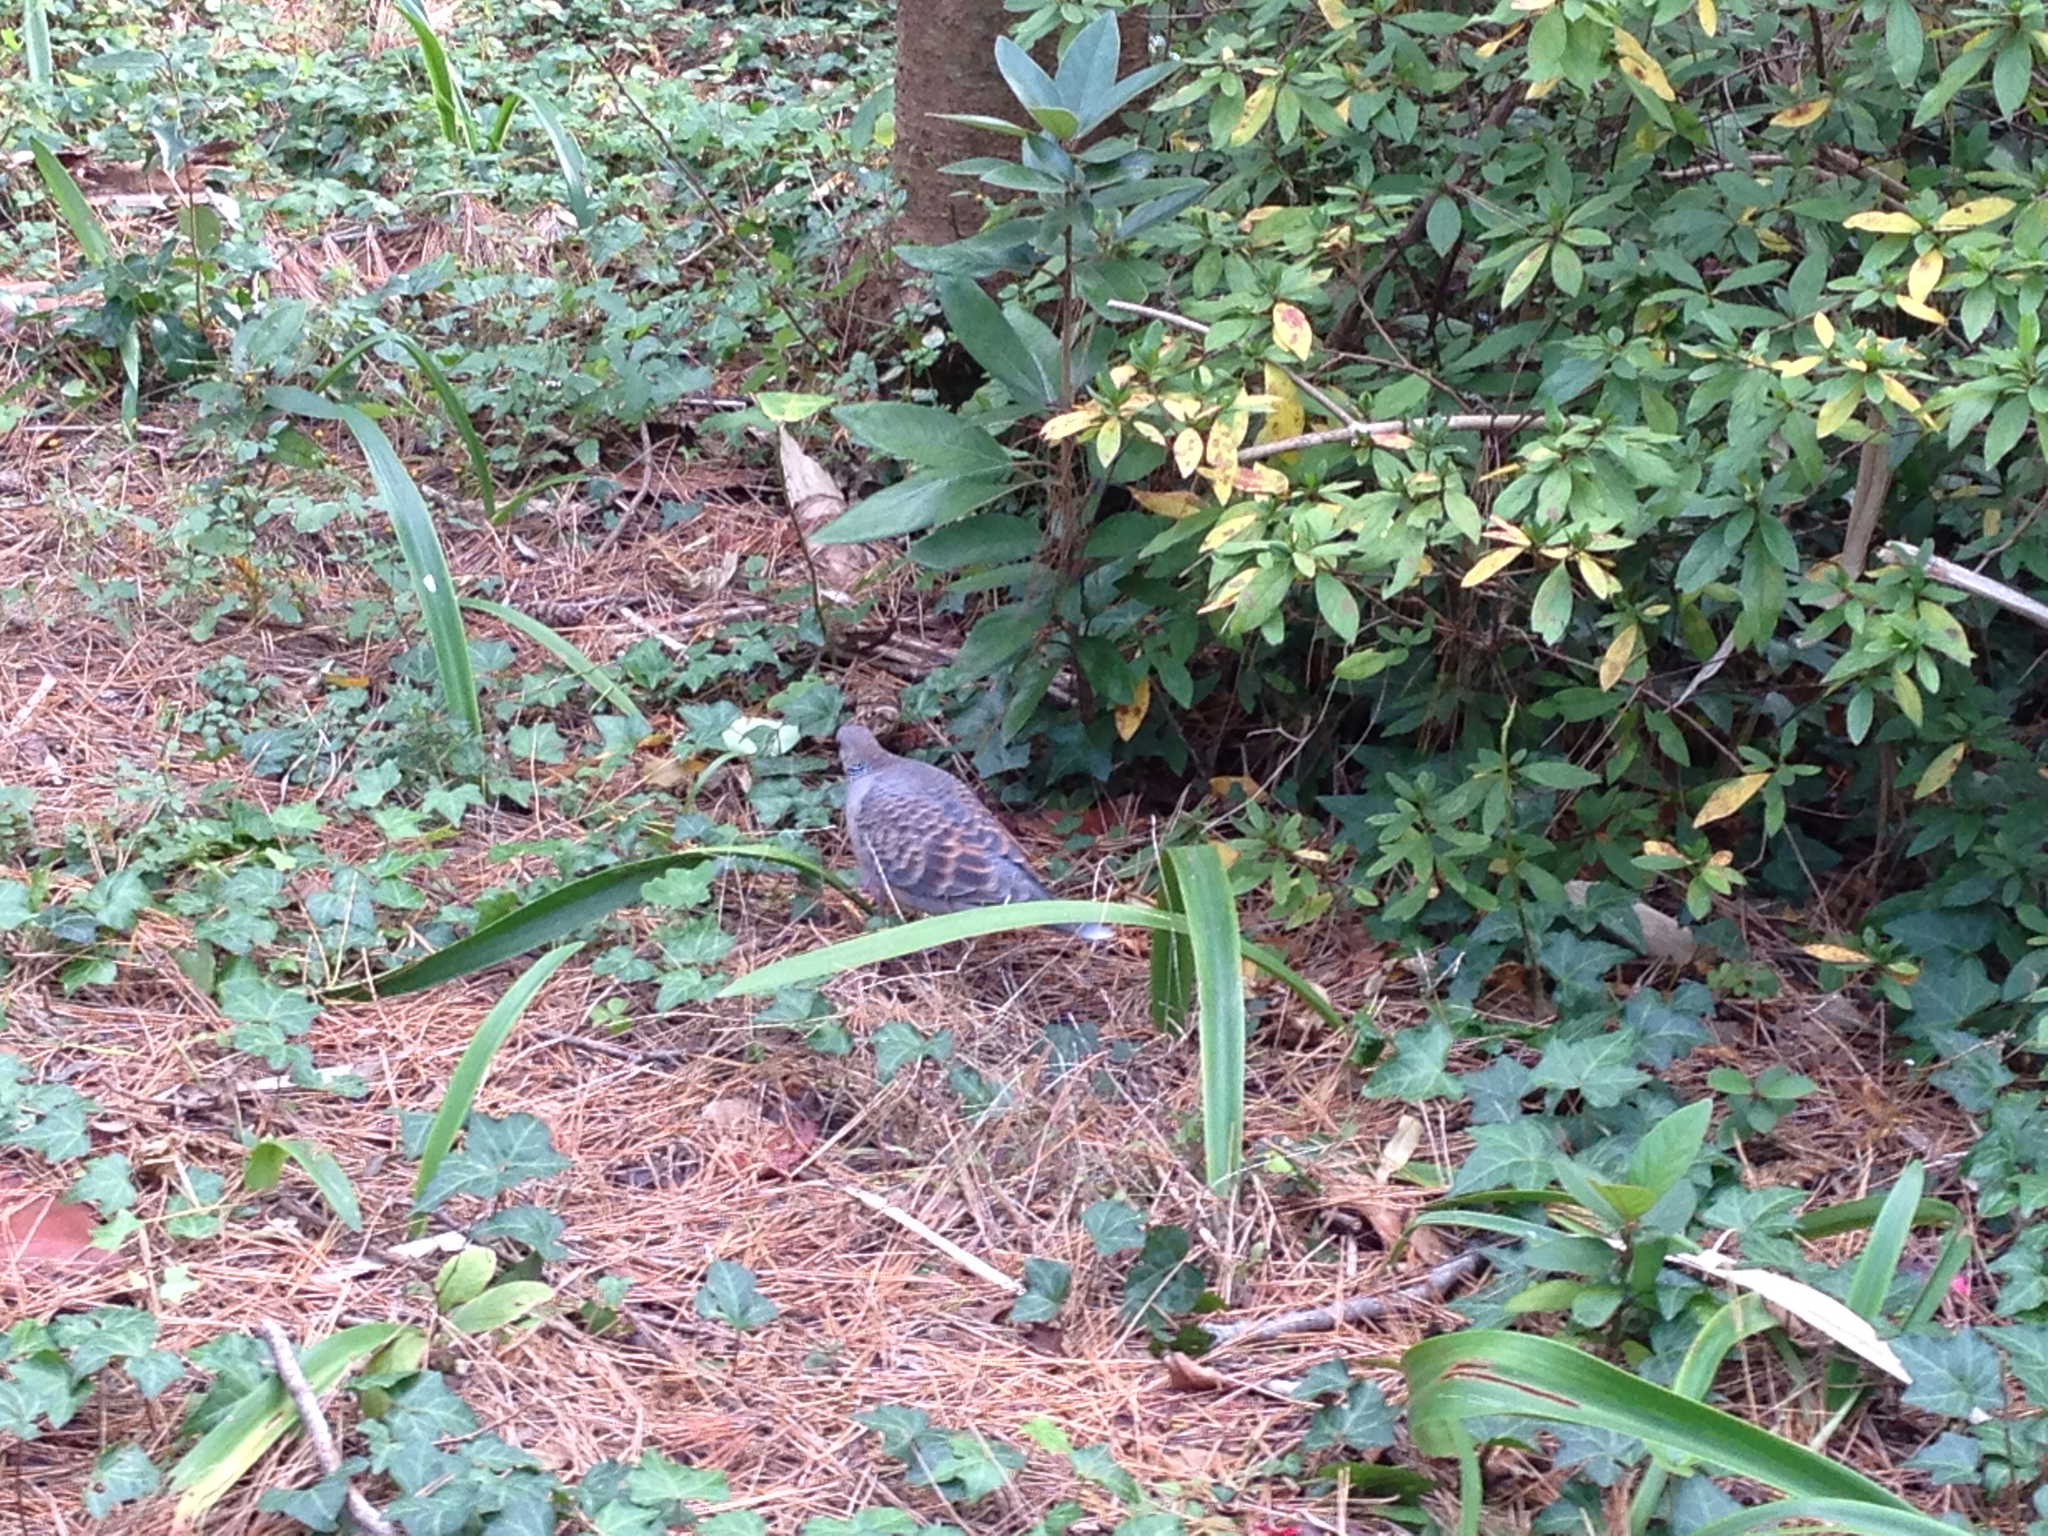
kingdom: Animalia
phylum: Chordata
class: Aves
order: Columbiformes
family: Columbidae
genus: Streptopelia
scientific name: Streptopelia orientalis
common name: Oriental turtle dove
